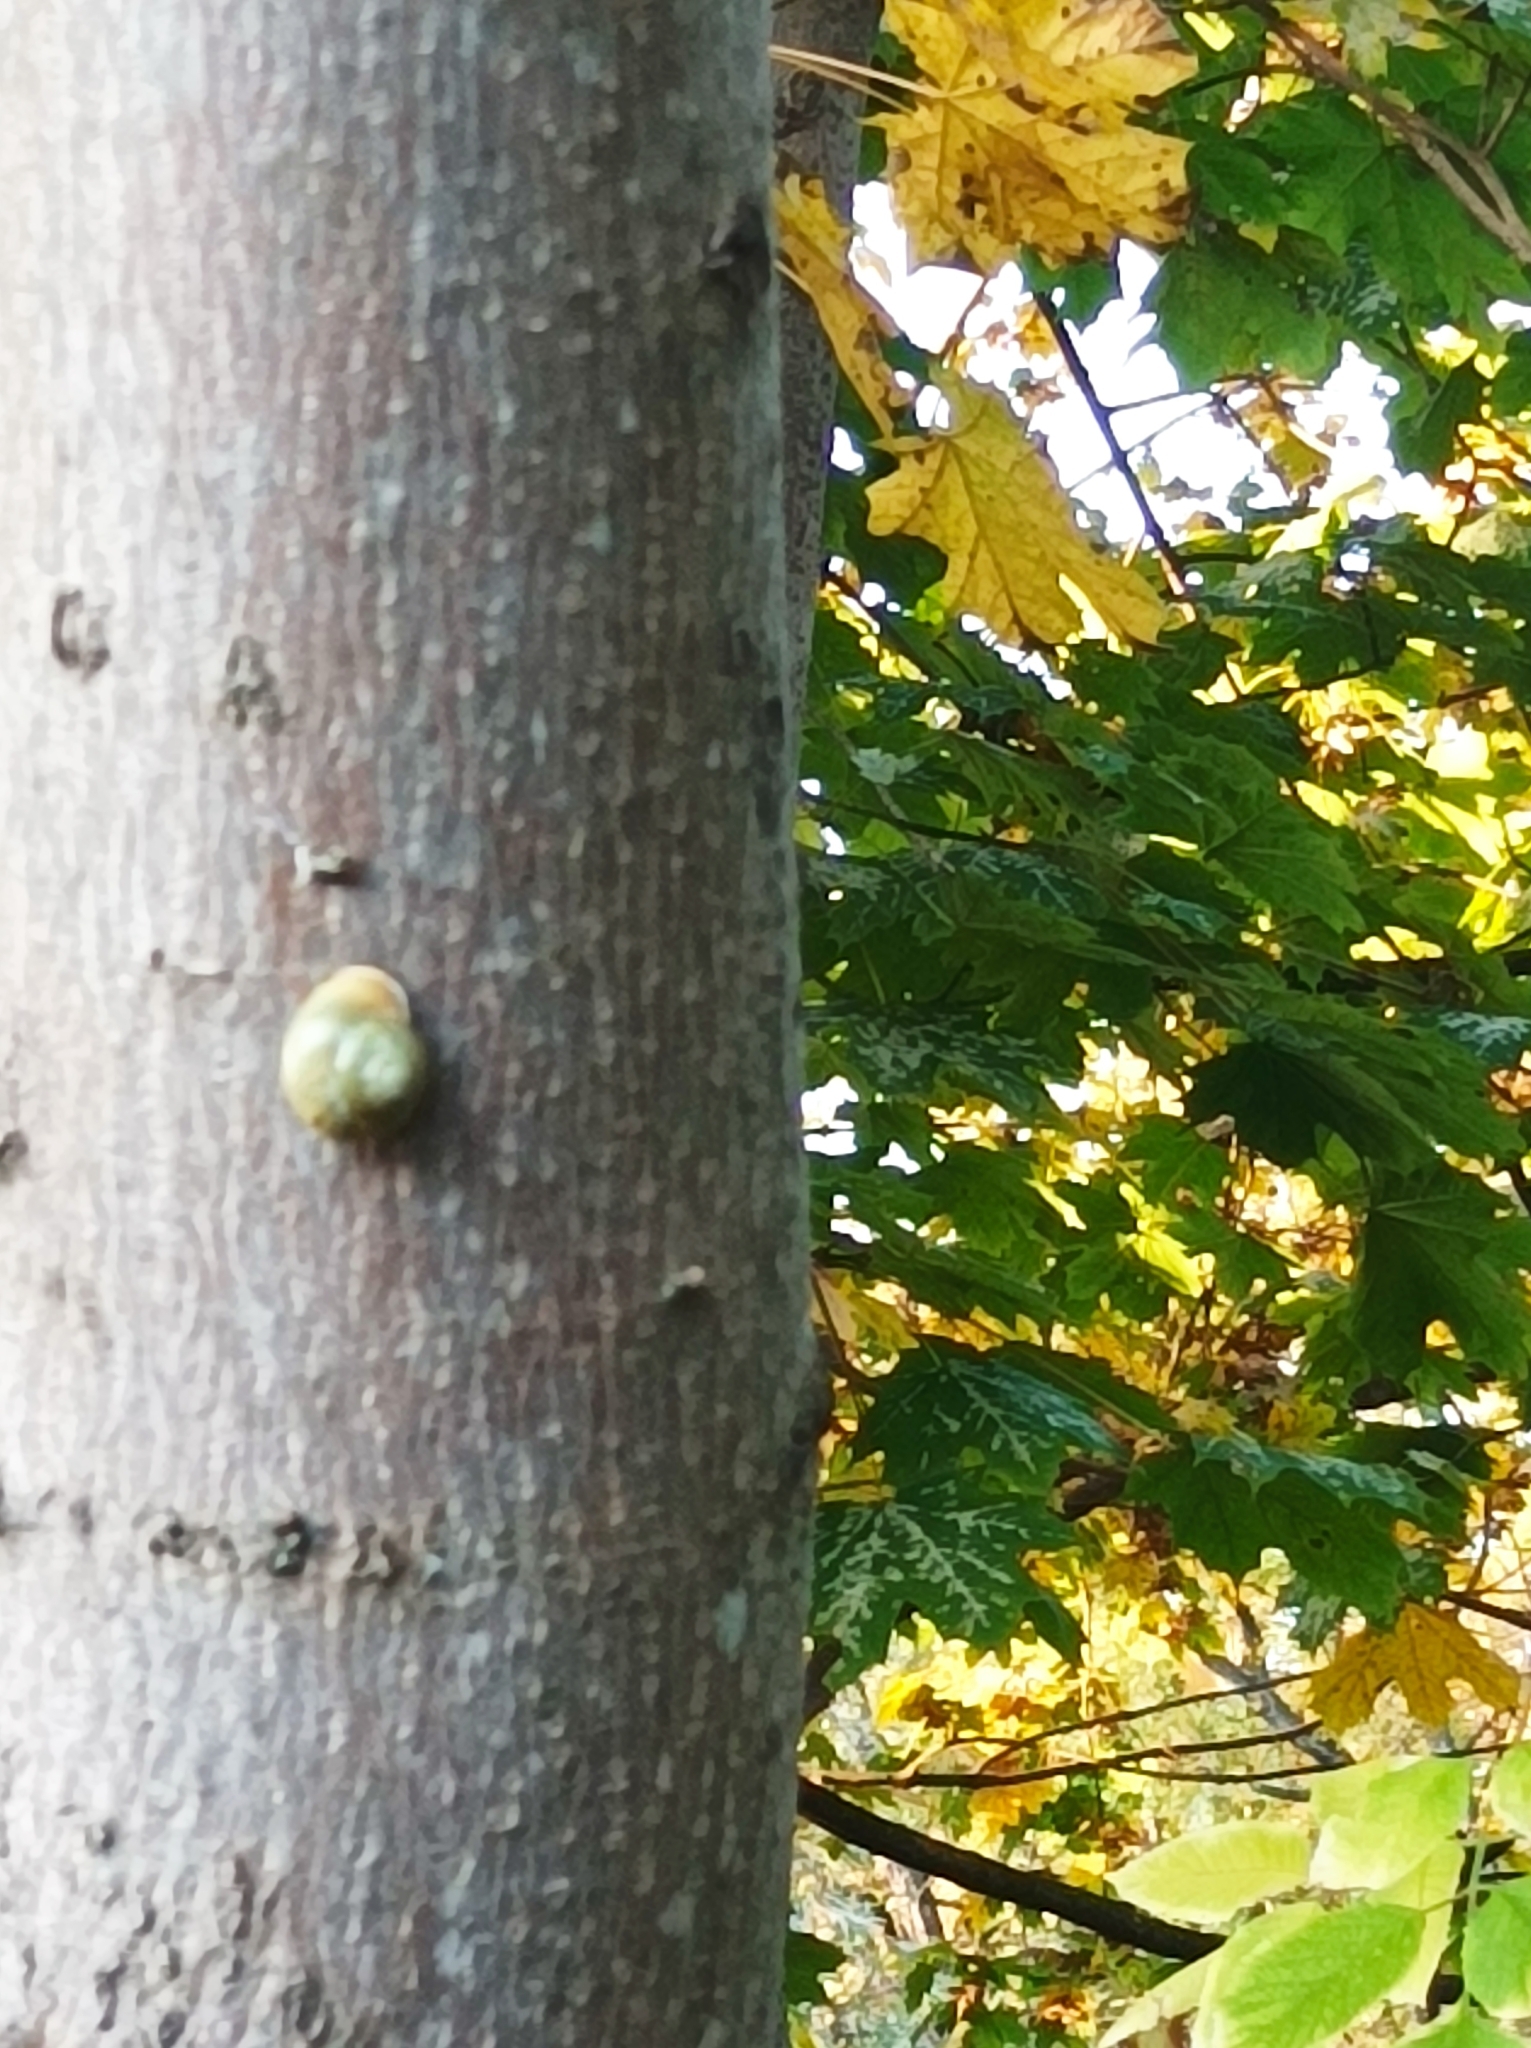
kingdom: Animalia
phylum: Mollusca
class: Gastropoda
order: Stylommatophora
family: Helicidae
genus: Cepaea
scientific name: Cepaea hortensis
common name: White-lip gardensnail
